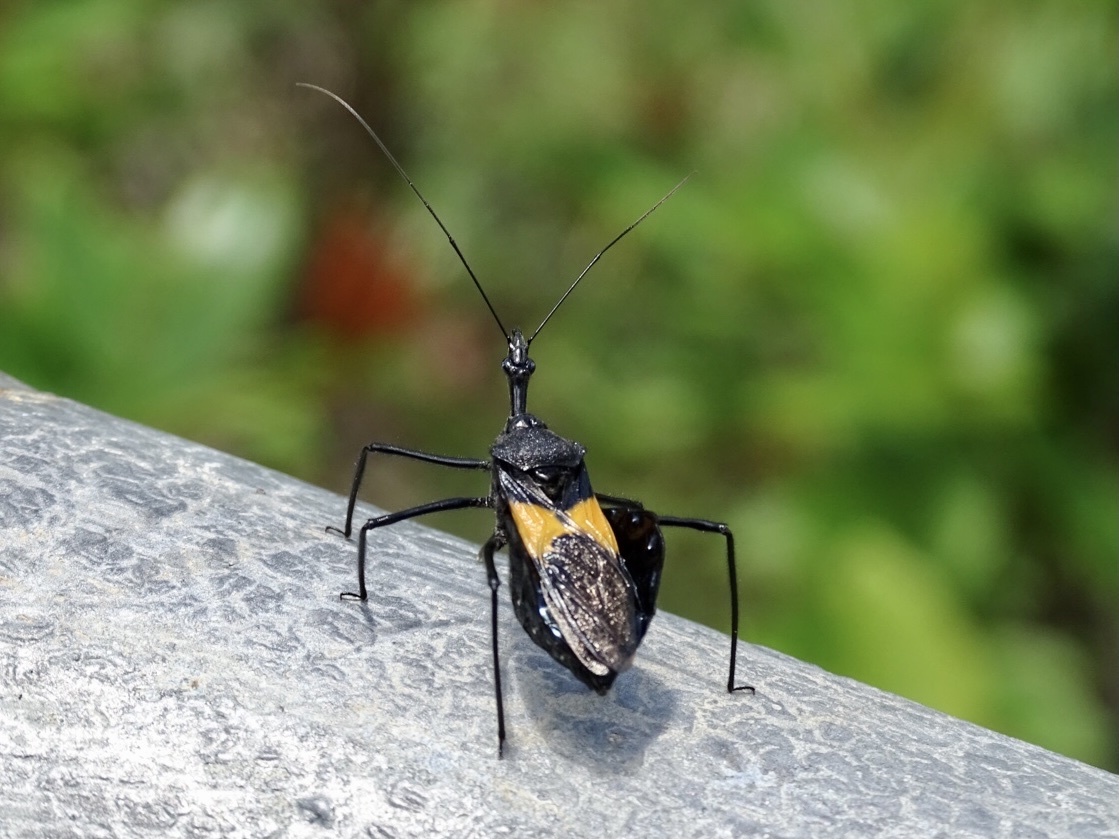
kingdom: Animalia
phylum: Arthropoda
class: Insecta
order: Hemiptera
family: Reduviidae
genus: Sycanus
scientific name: Sycanus croceovittatus
